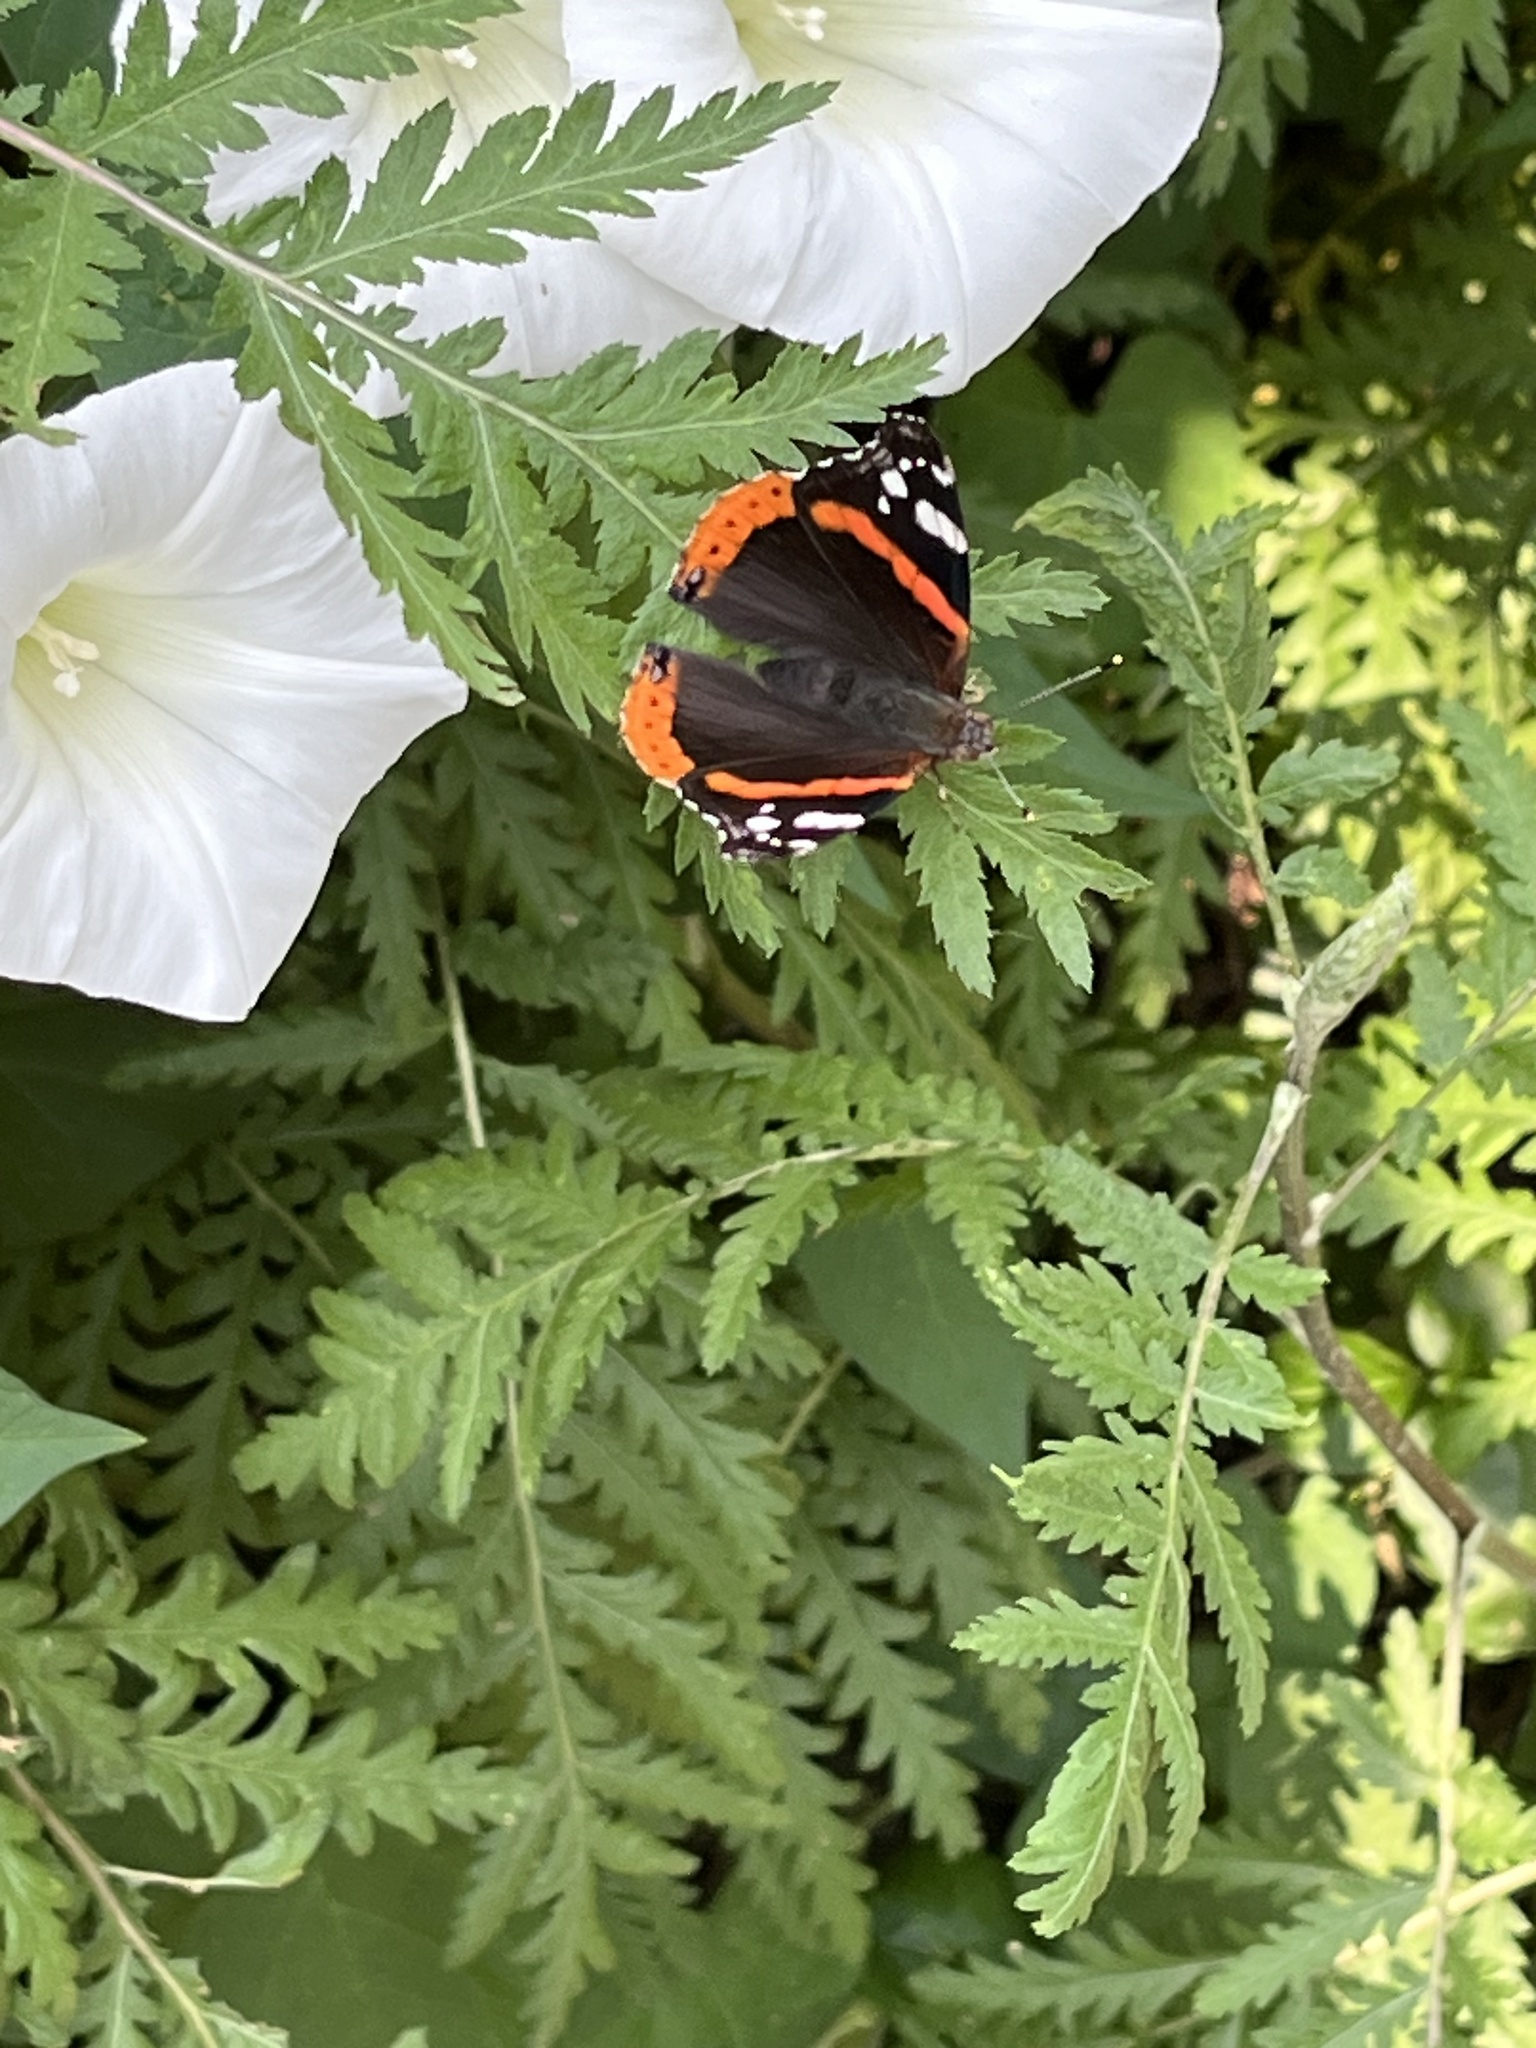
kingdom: Animalia
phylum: Arthropoda
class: Insecta
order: Lepidoptera
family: Nymphalidae
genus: Vanessa
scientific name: Vanessa atalanta
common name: Red admiral
